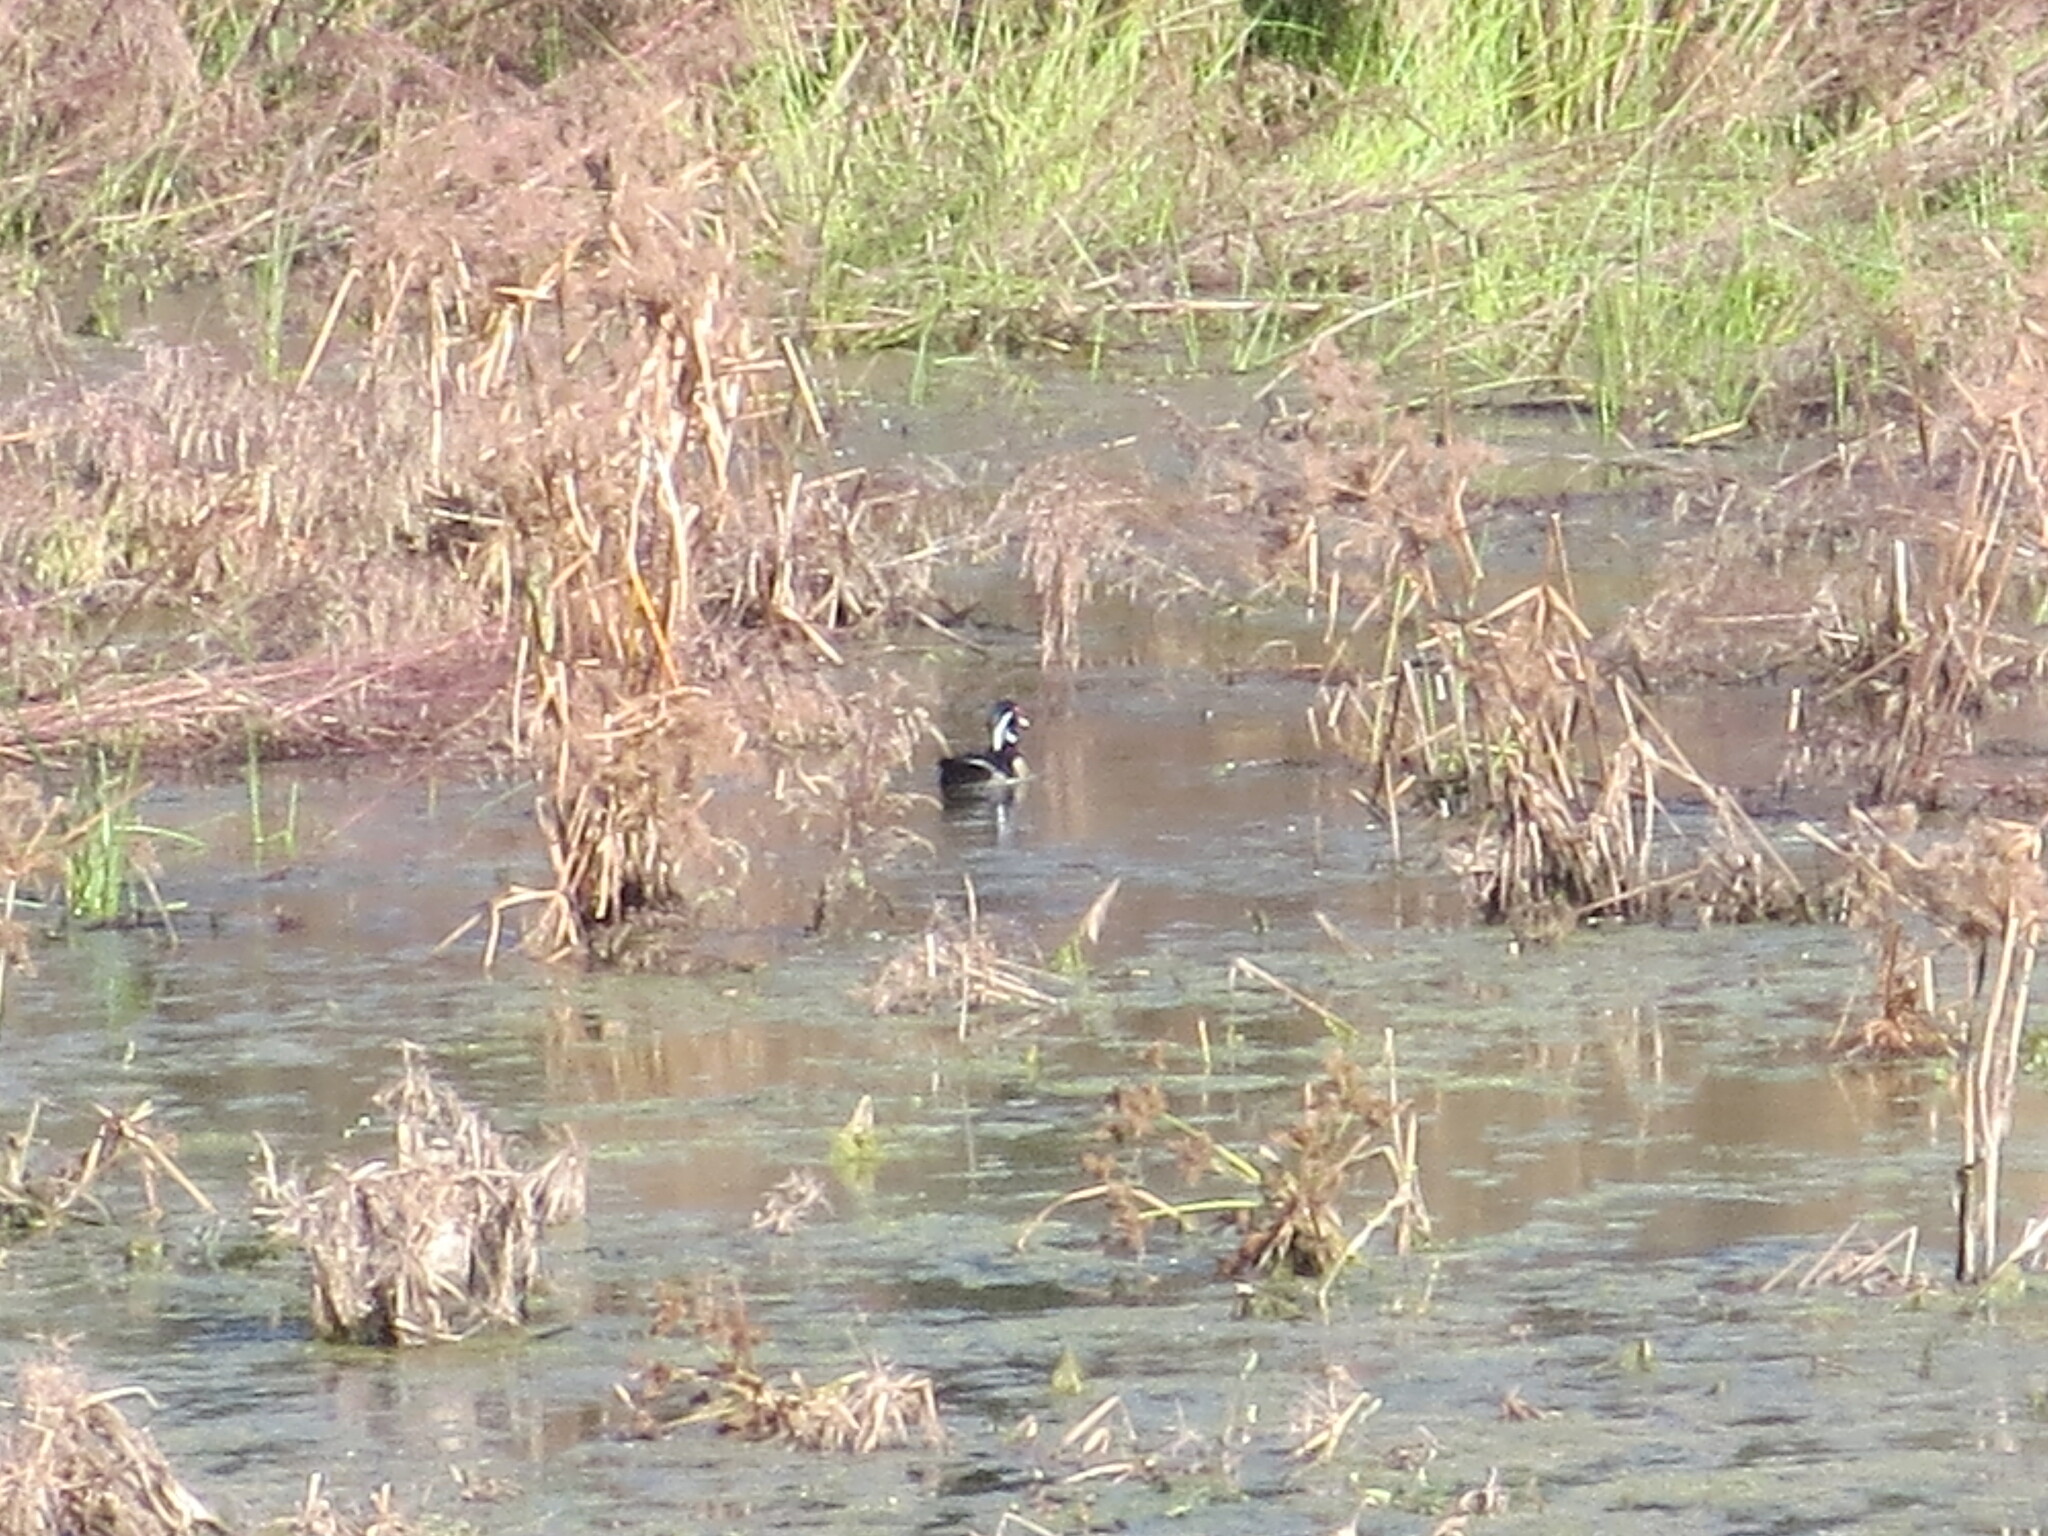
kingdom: Animalia
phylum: Chordata
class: Aves
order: Anseriformes
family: Anatidae
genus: Aix
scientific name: Aix sponsa
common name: Wood duck
